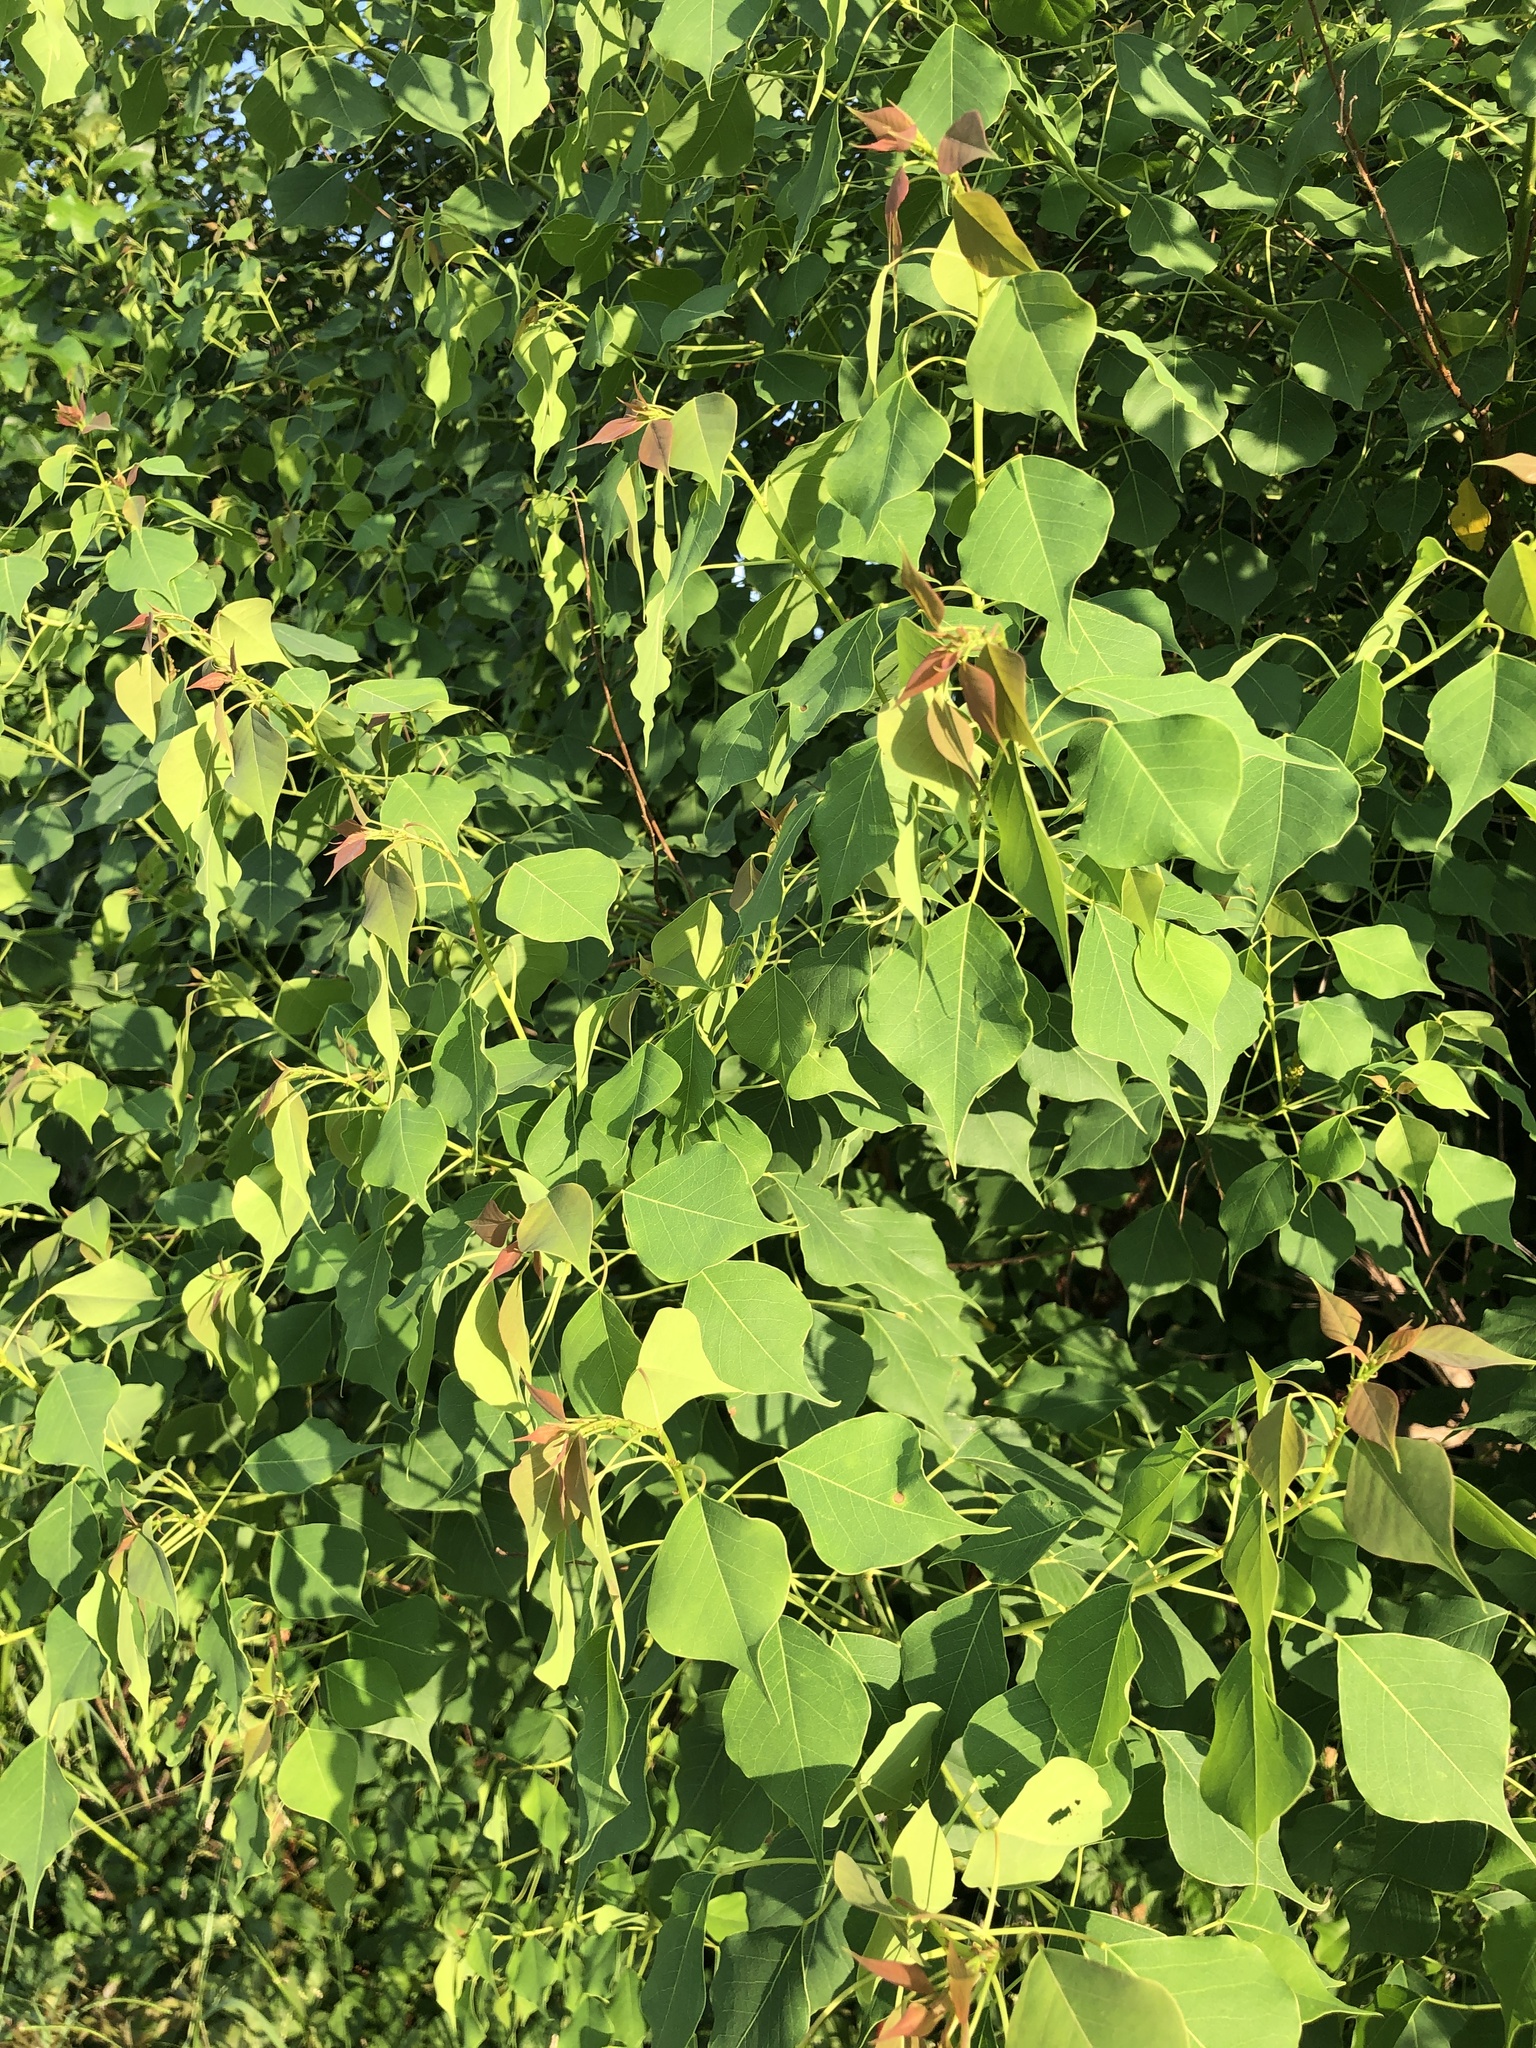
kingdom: Plantae
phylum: Tracheophyta
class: Magnoliopsida
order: Malpighiales
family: Euphorbiaceae
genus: Triadica
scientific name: Triadica sebifera
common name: Chinese tallow
